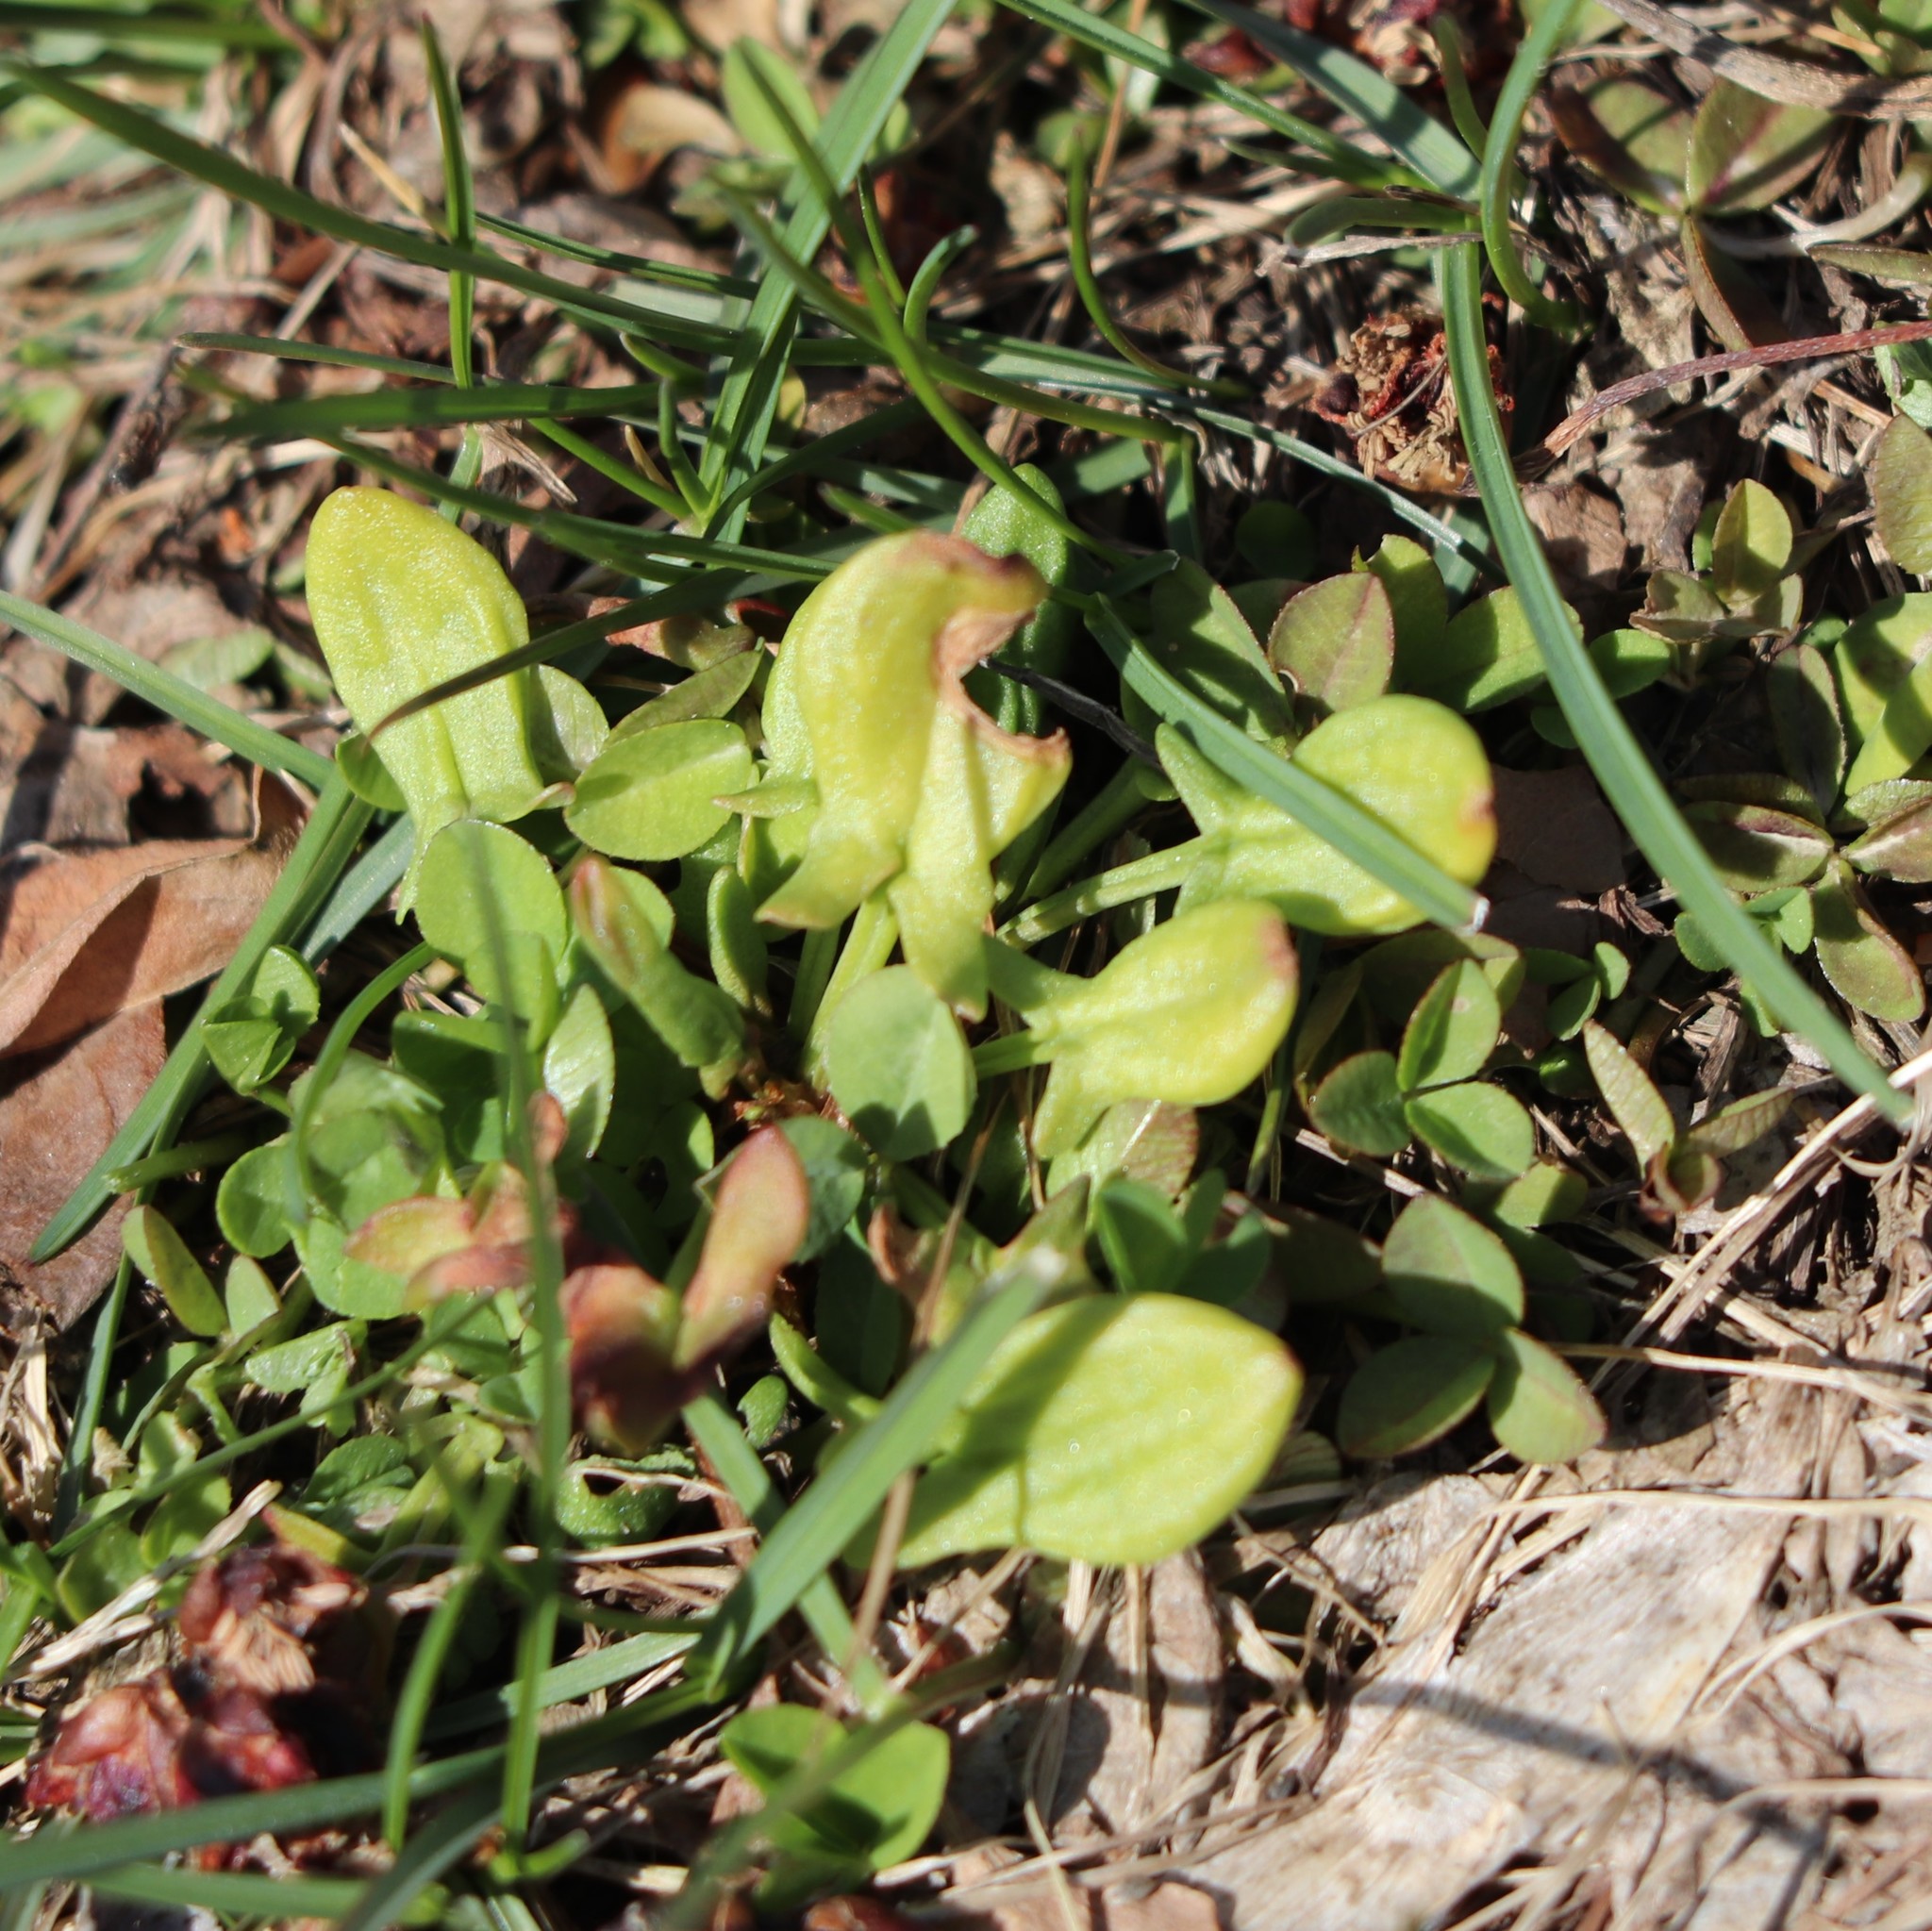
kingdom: Plantae
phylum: Tracheophyta
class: Magnoliopsida
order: Caryophyllales
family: Polygonaceae
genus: Rumex
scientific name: Rumex acetosella
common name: Common sheep sorrel
